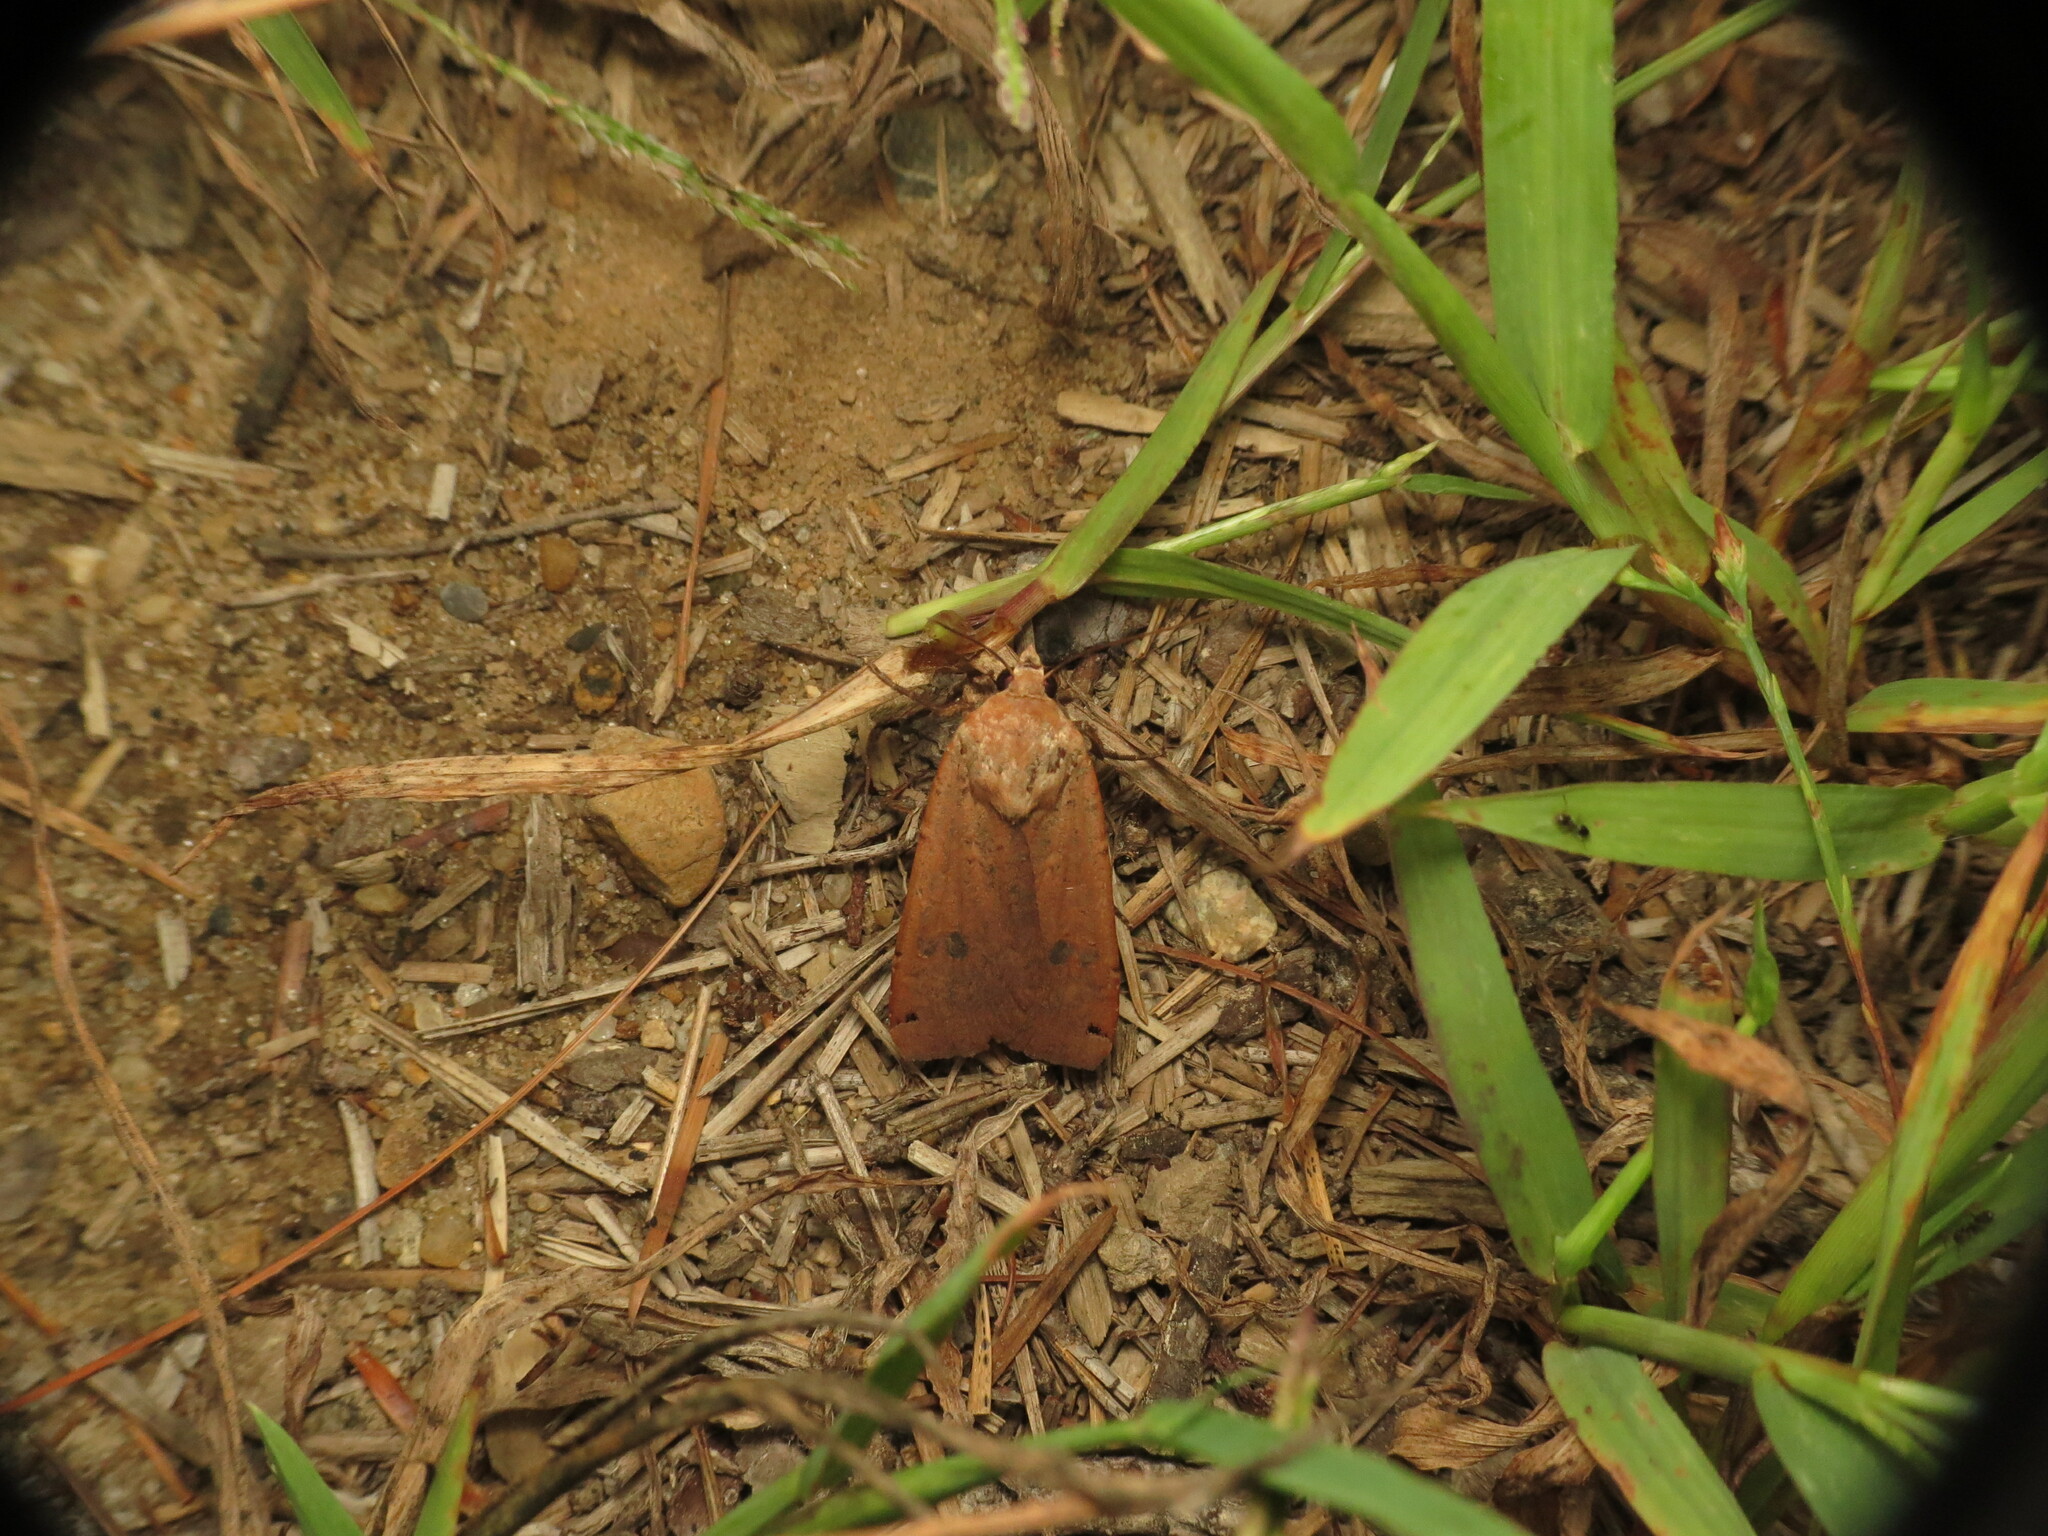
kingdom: Animalia
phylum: Arthropoda
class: Insecta
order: Lepidoptera
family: Noctuidae
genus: Noctua
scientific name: Noctua pronuba
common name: Large yellow underwing
